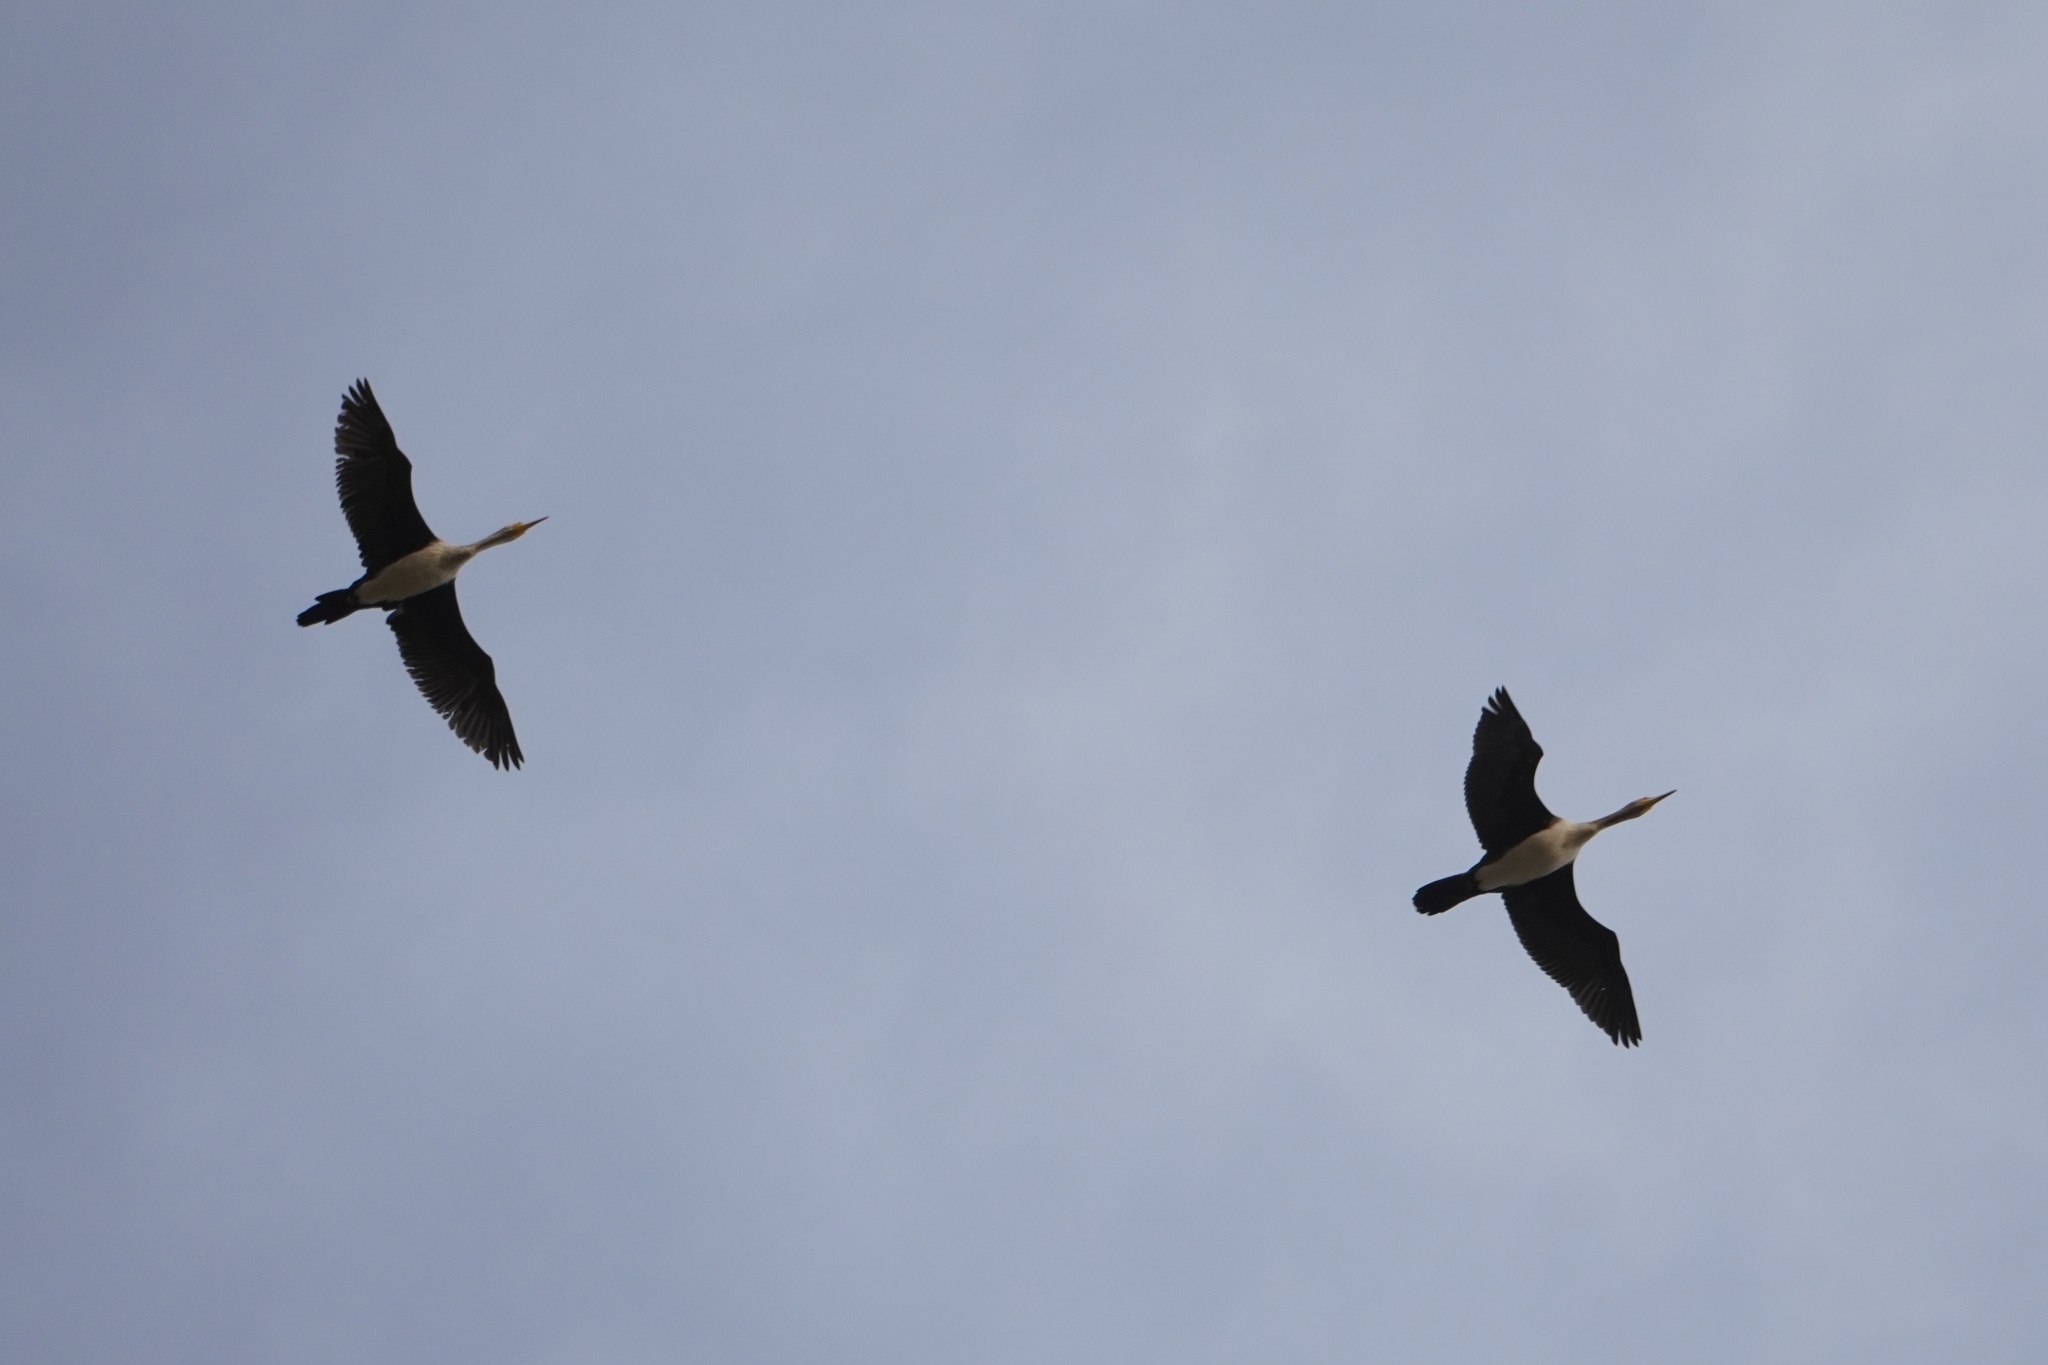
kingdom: Animalia
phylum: Chordata
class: Aves
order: Suliformes
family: Phalacrocoracidae
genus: Microcarbo
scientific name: Microcarbo africanus
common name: Long-tailed cormorant
